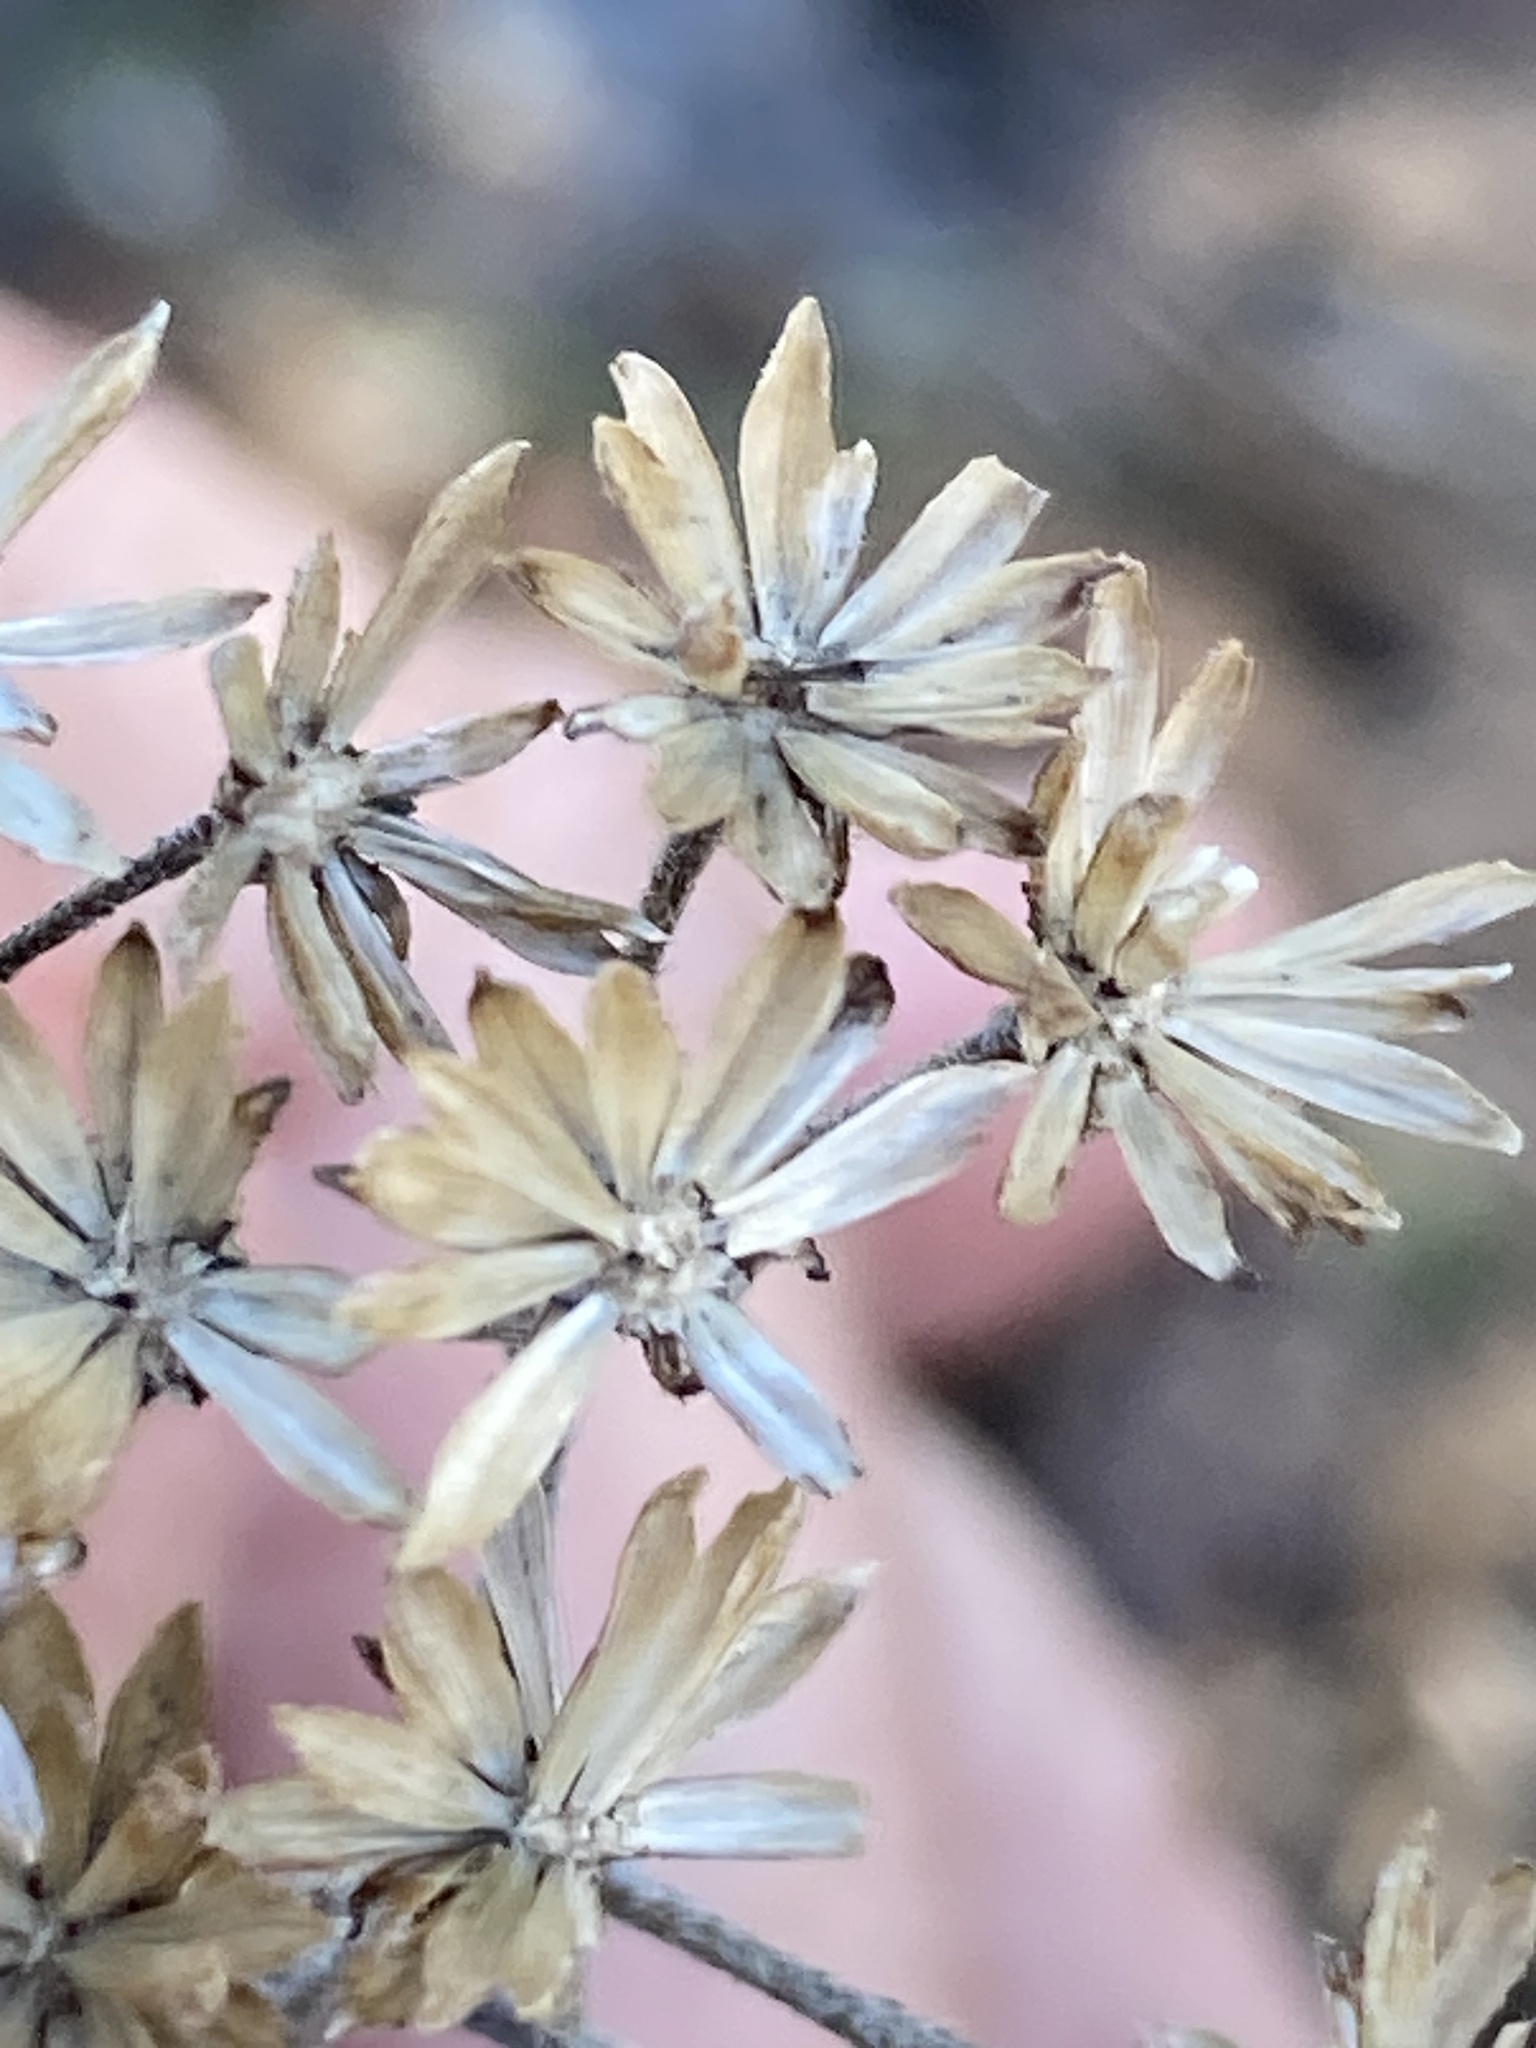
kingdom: Plantae
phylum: Tracheophyta
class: Magnoliopsida
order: Asterales
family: Asteraceae
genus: Verbesina
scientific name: Verbesina virginica
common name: Frostweed
